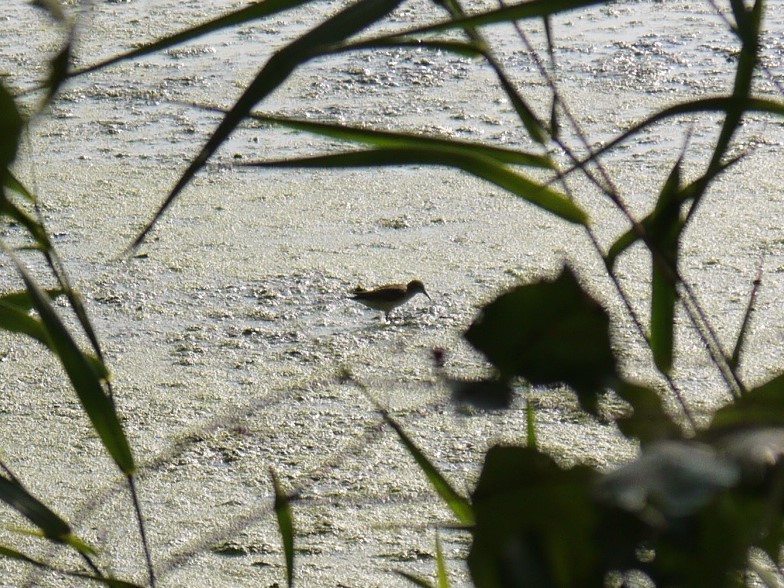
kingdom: Animalia
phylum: Chordata
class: Aves
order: Charadriiformes
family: Scolopacidae
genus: Calidris
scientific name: Calidris minutilla
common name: Least sandpiper
